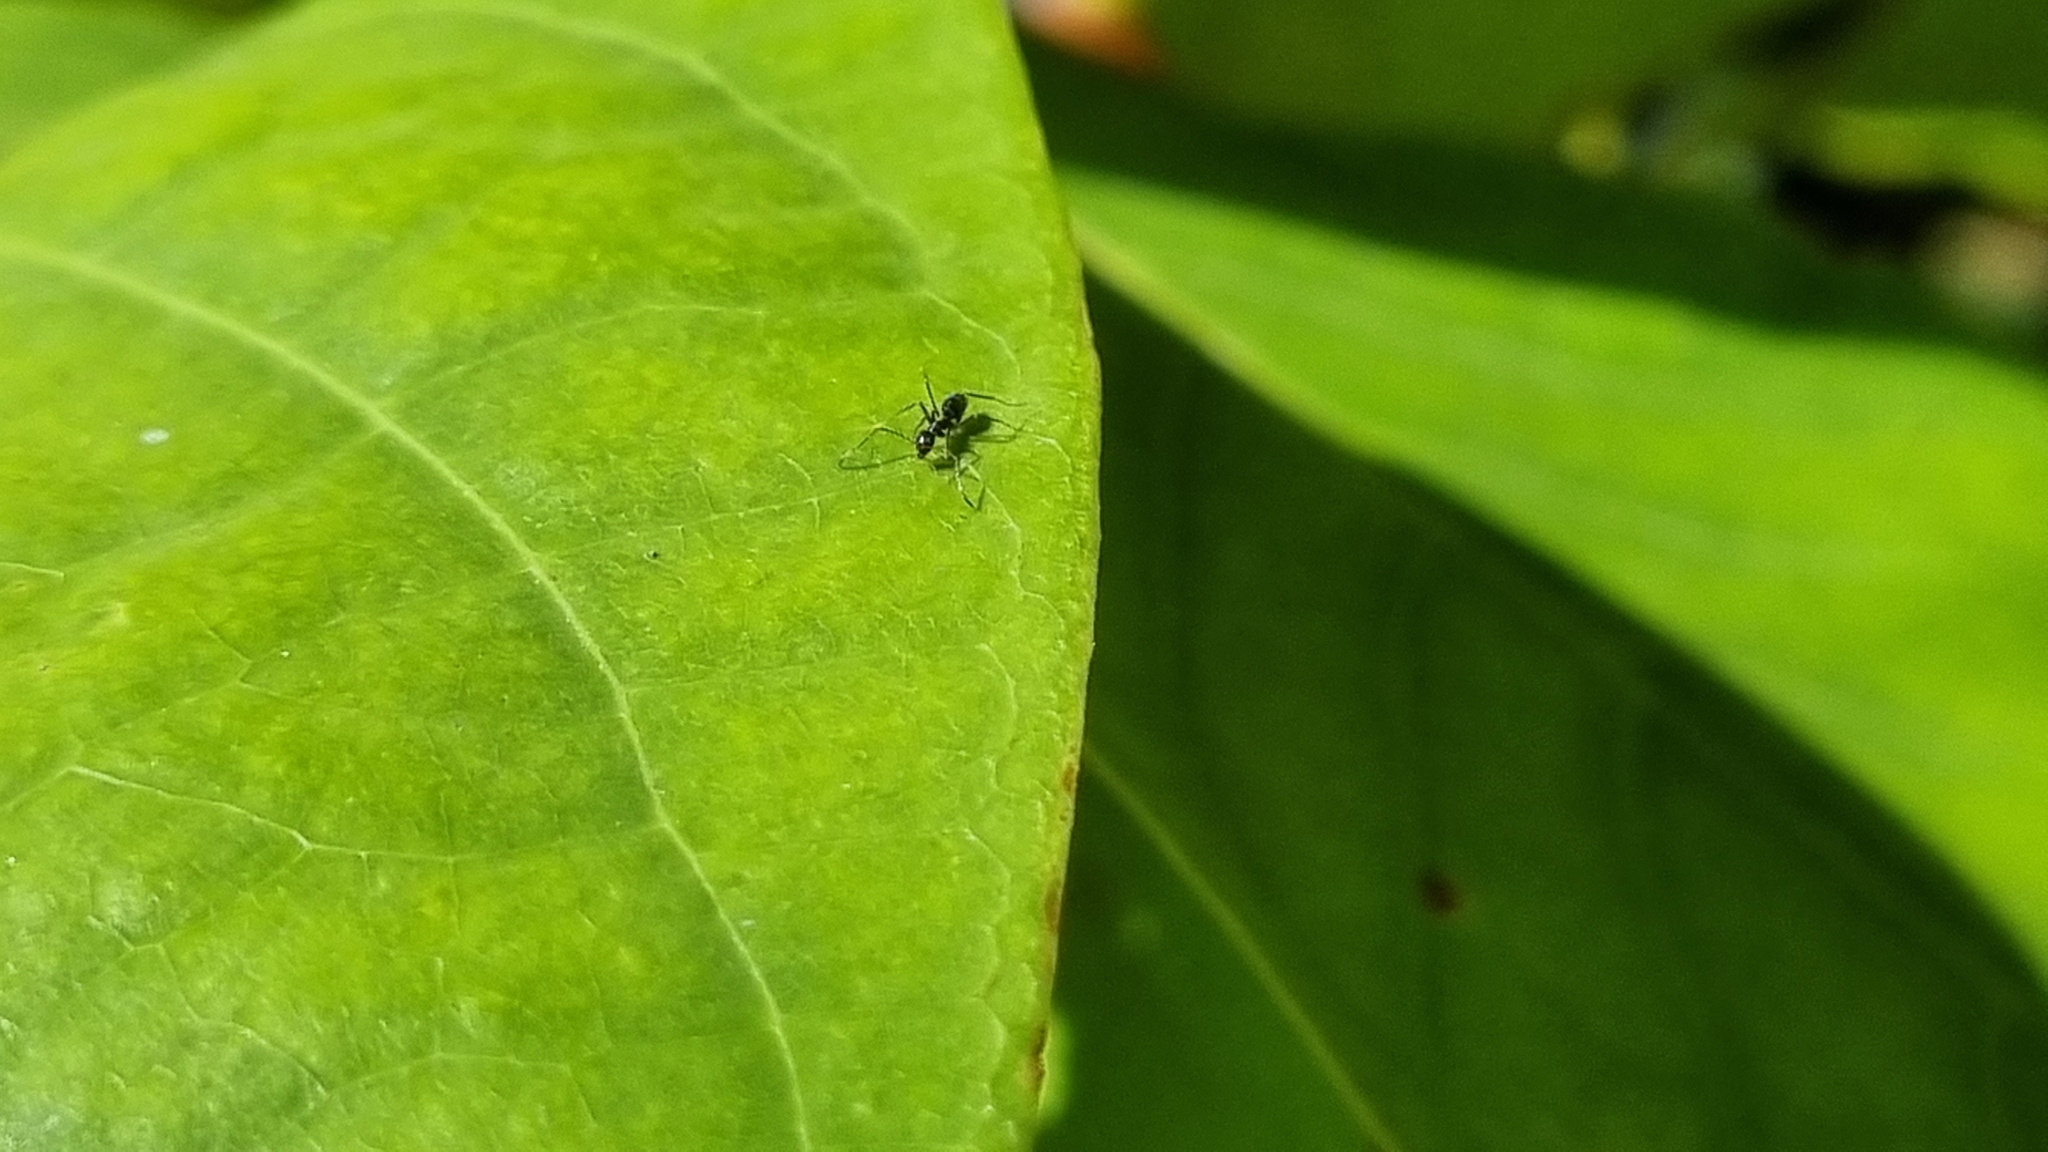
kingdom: Animalia
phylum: Arthropoda
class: Insecta
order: Hymenoptera
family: Formicidae
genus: Paratrechina
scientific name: Paratrechina longicornis
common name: Longhorned crazy ant
